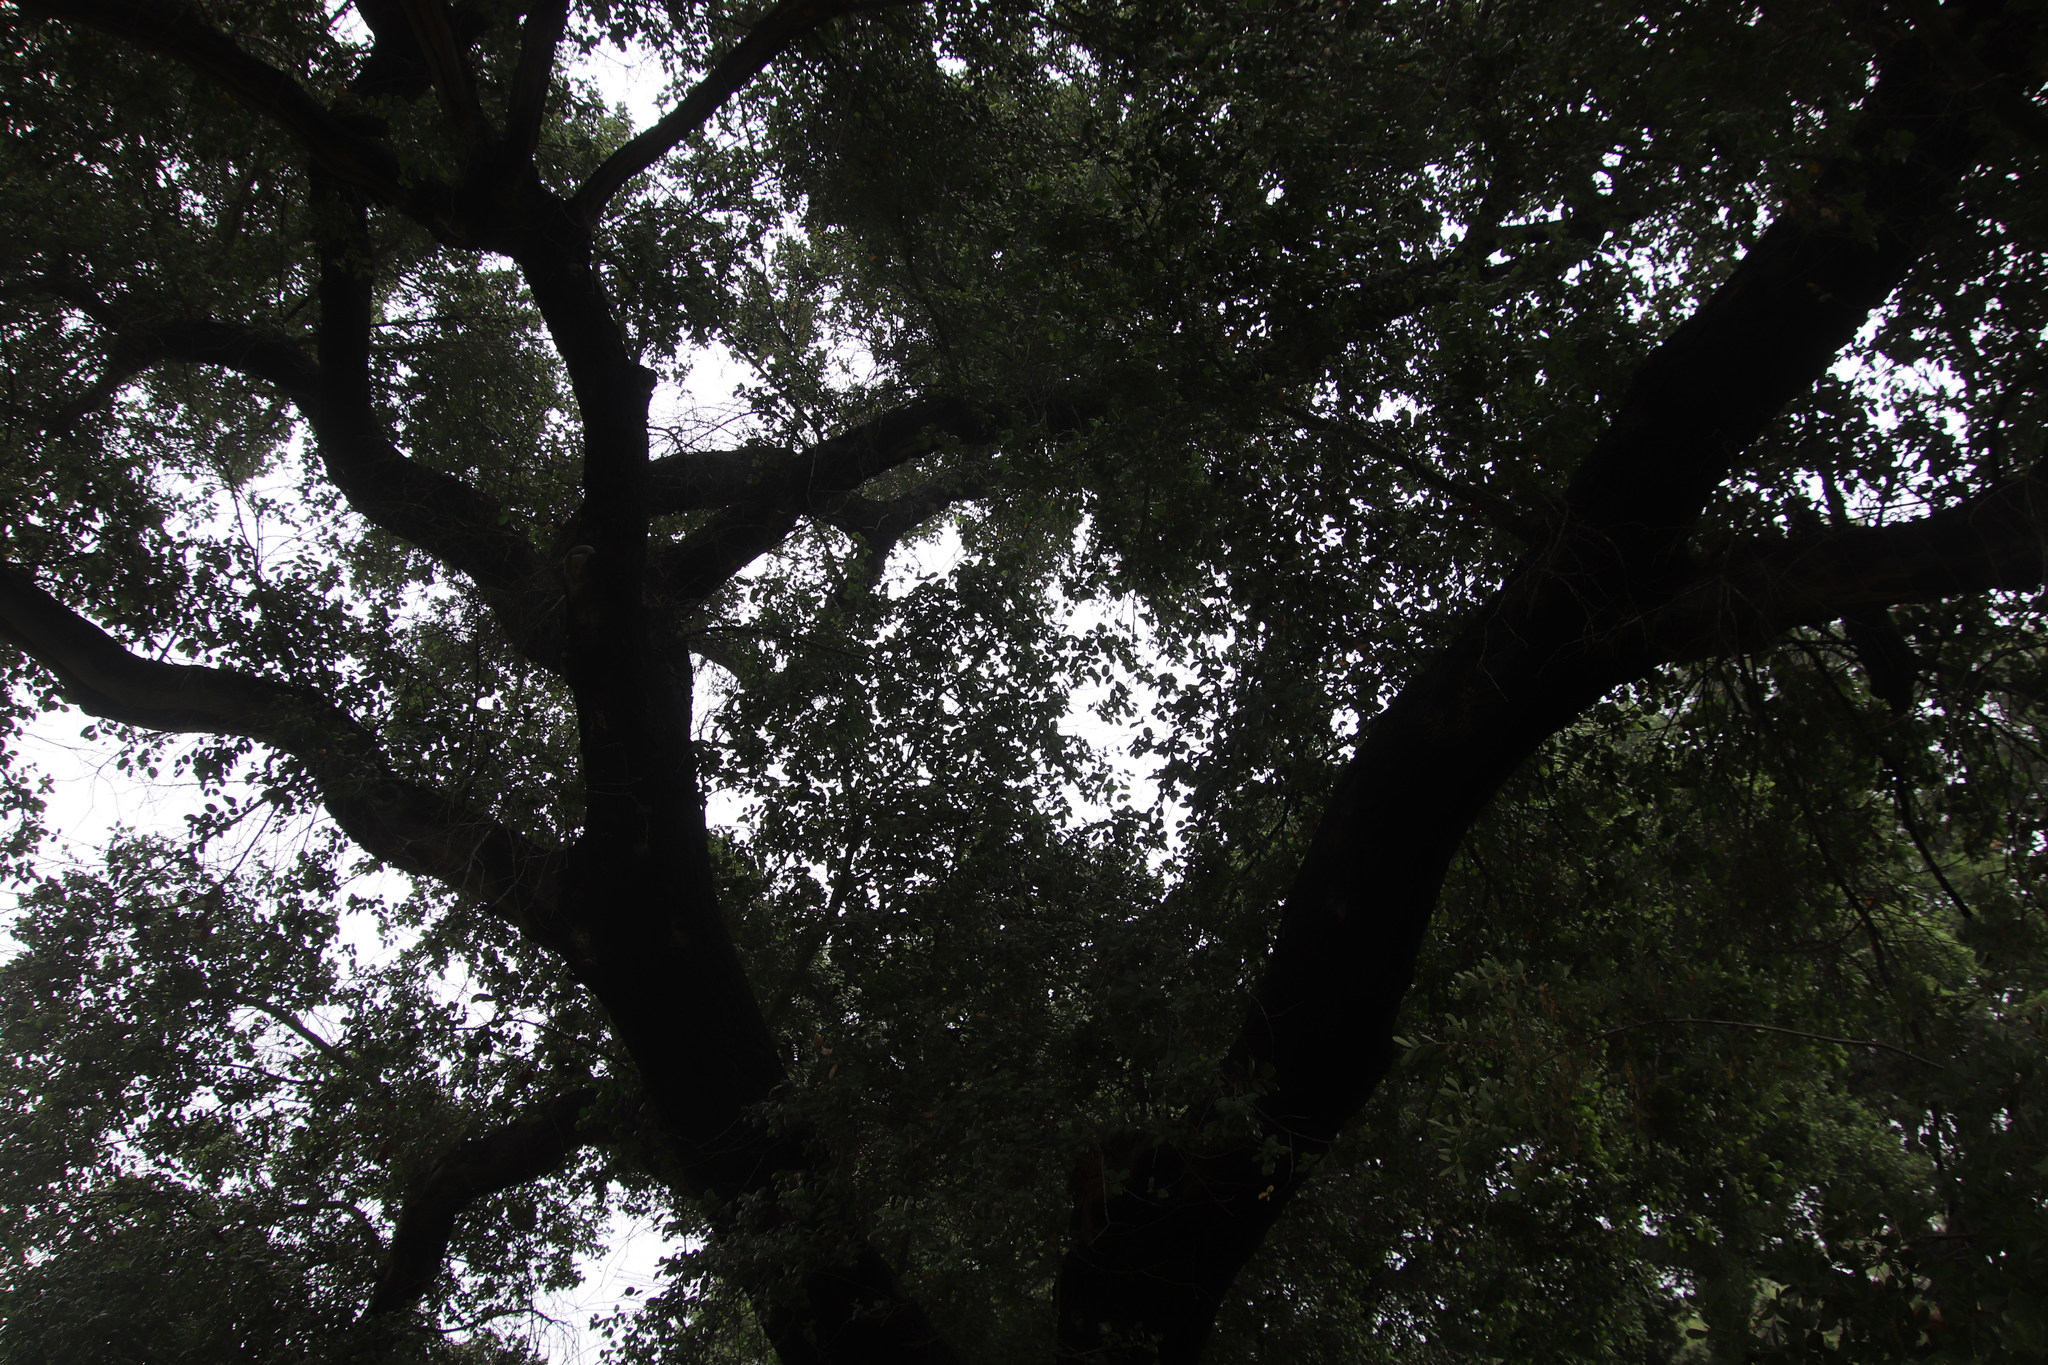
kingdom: Plantae
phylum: Tracheophyta
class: Magnoliopsida
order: Fagales
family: Fagaceae
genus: Quercus
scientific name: Quercus agrifolia
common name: California live oak
